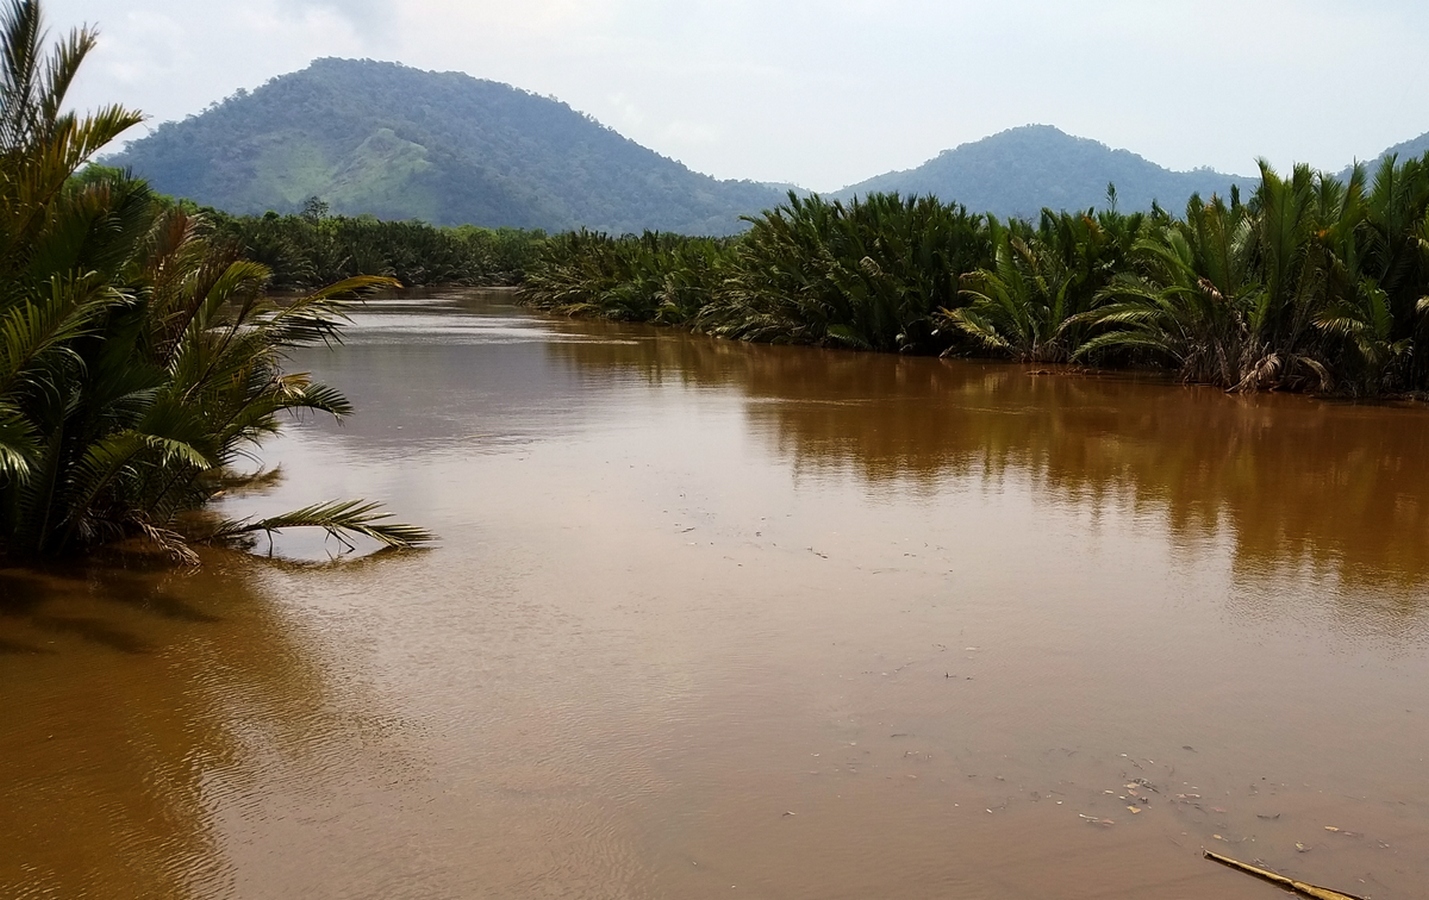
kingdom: Plantae
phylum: Tracheophyta
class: Liliopsida
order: Arecales
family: Arecaceae
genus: Nypa
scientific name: Nypa fruticans
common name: Mangrove palm
